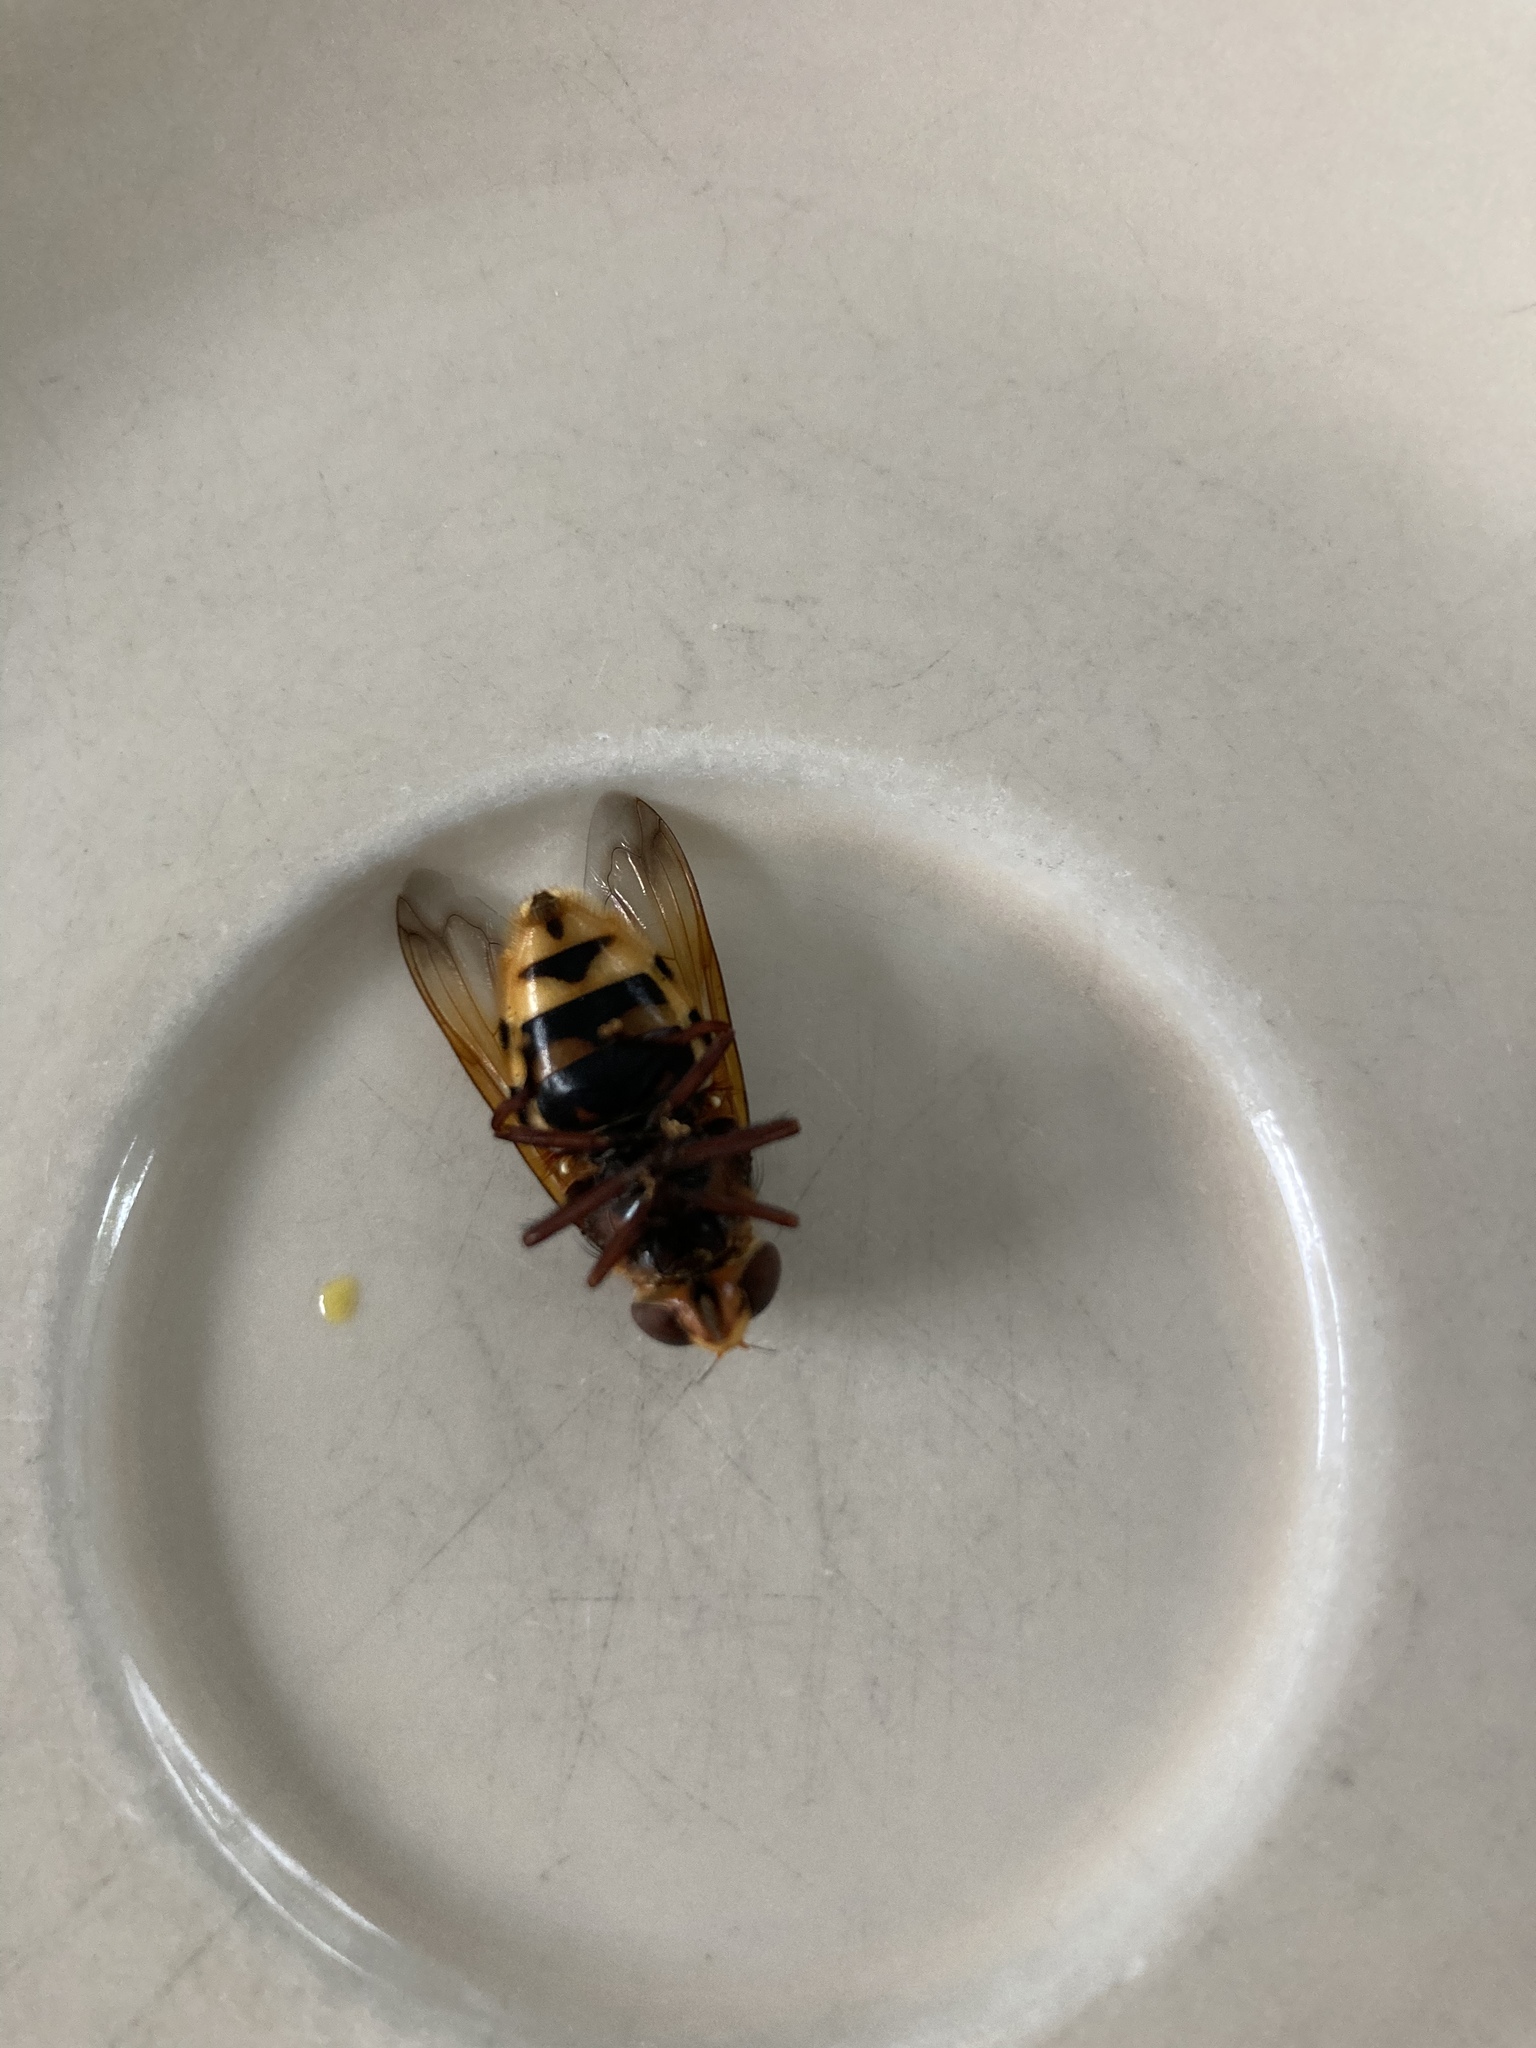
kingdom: Animalia
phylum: Arthropoda
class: Insecta
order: Diptera
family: Syrphidae
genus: Volucella
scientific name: Volucella zonaria
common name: Hornet hoverfly
